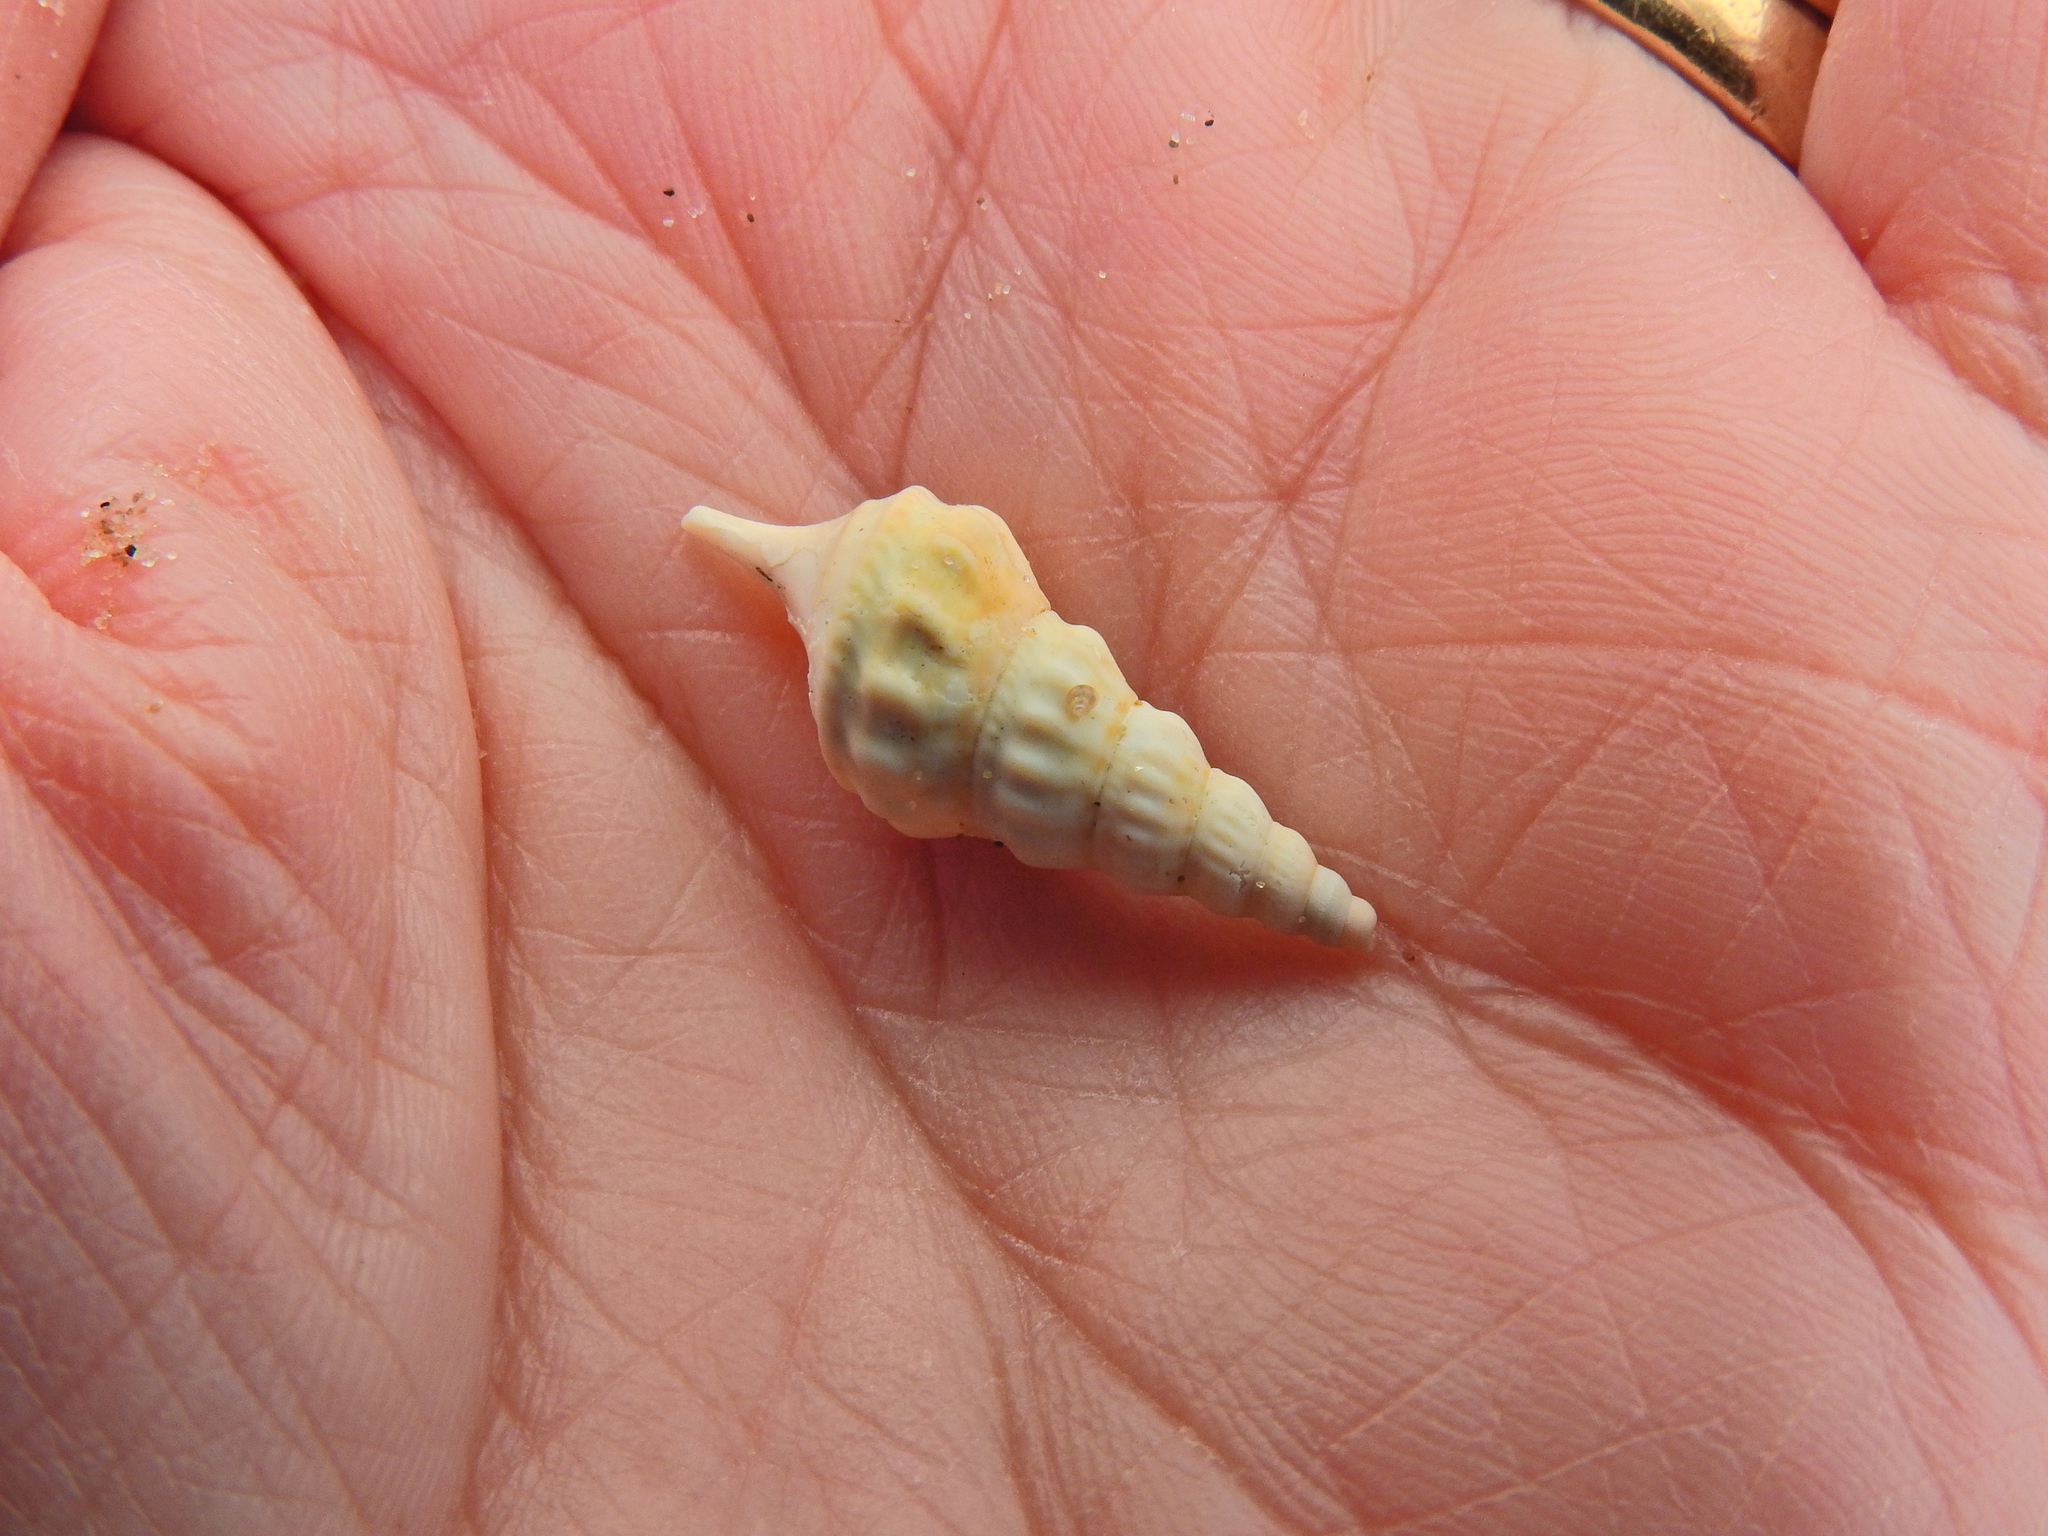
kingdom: Animalia
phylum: Mollusca
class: Gastropoda
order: Littorinimorpha
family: Aporrhaidae
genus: Aporrhais
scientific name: Aporrhais pespelecani
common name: Common pelican’s foot
